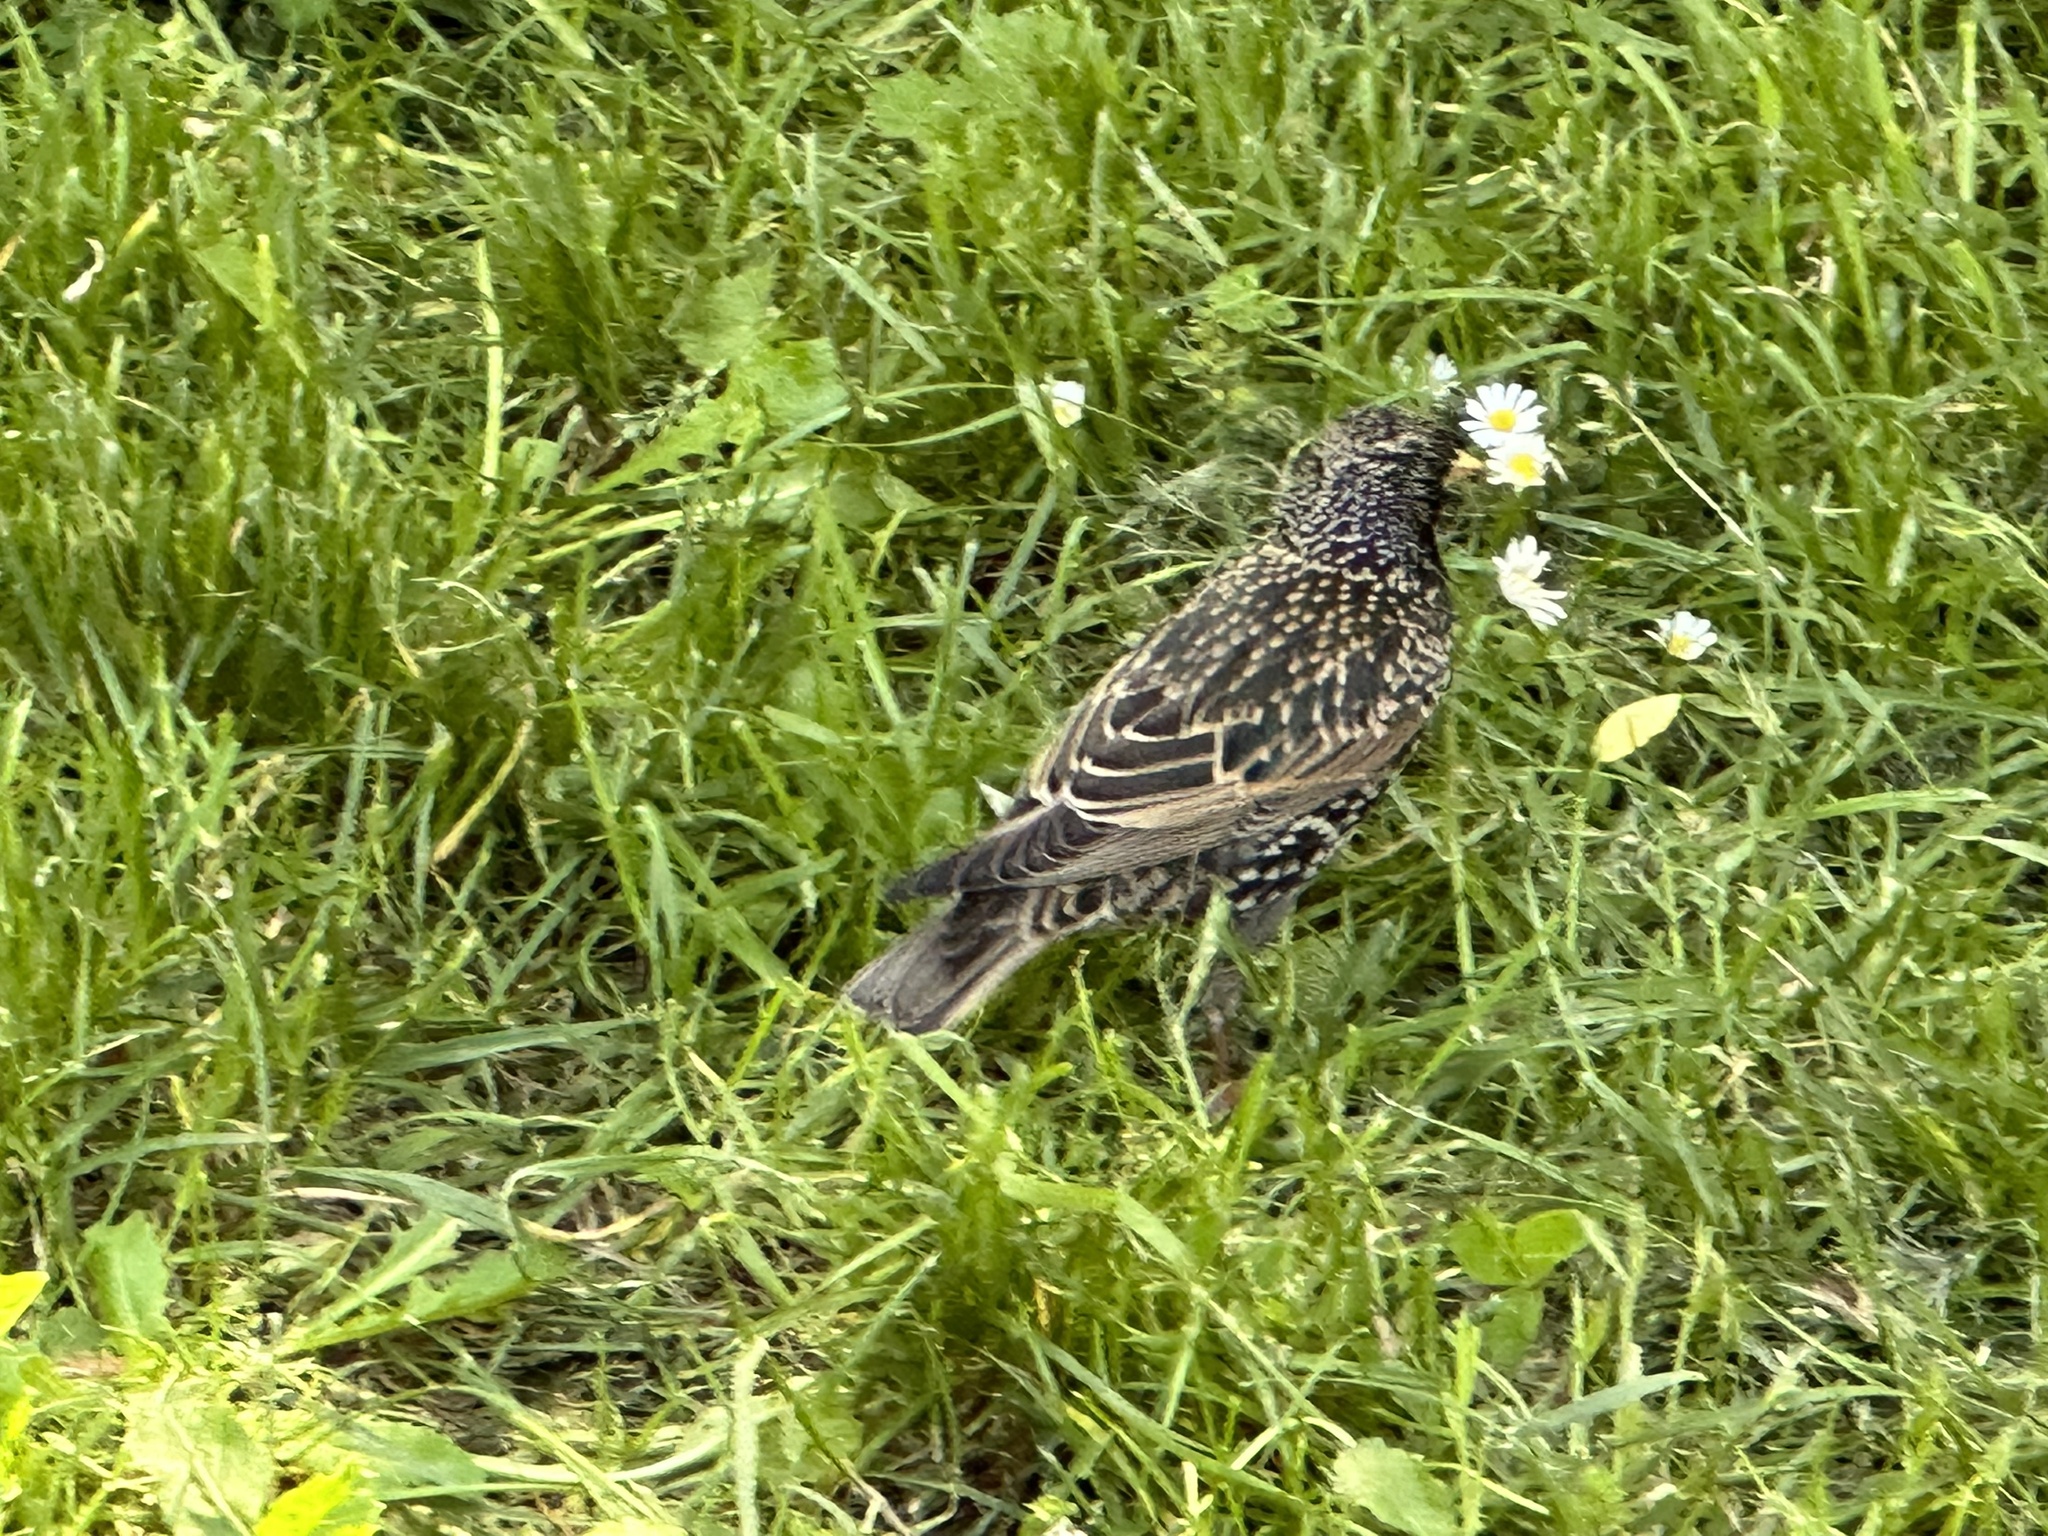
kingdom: Animalia
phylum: Chordata
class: Aves
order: Passeriformes
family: Sturnidae
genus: Sturnus
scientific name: Sturnus vulgaris
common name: Common starling
